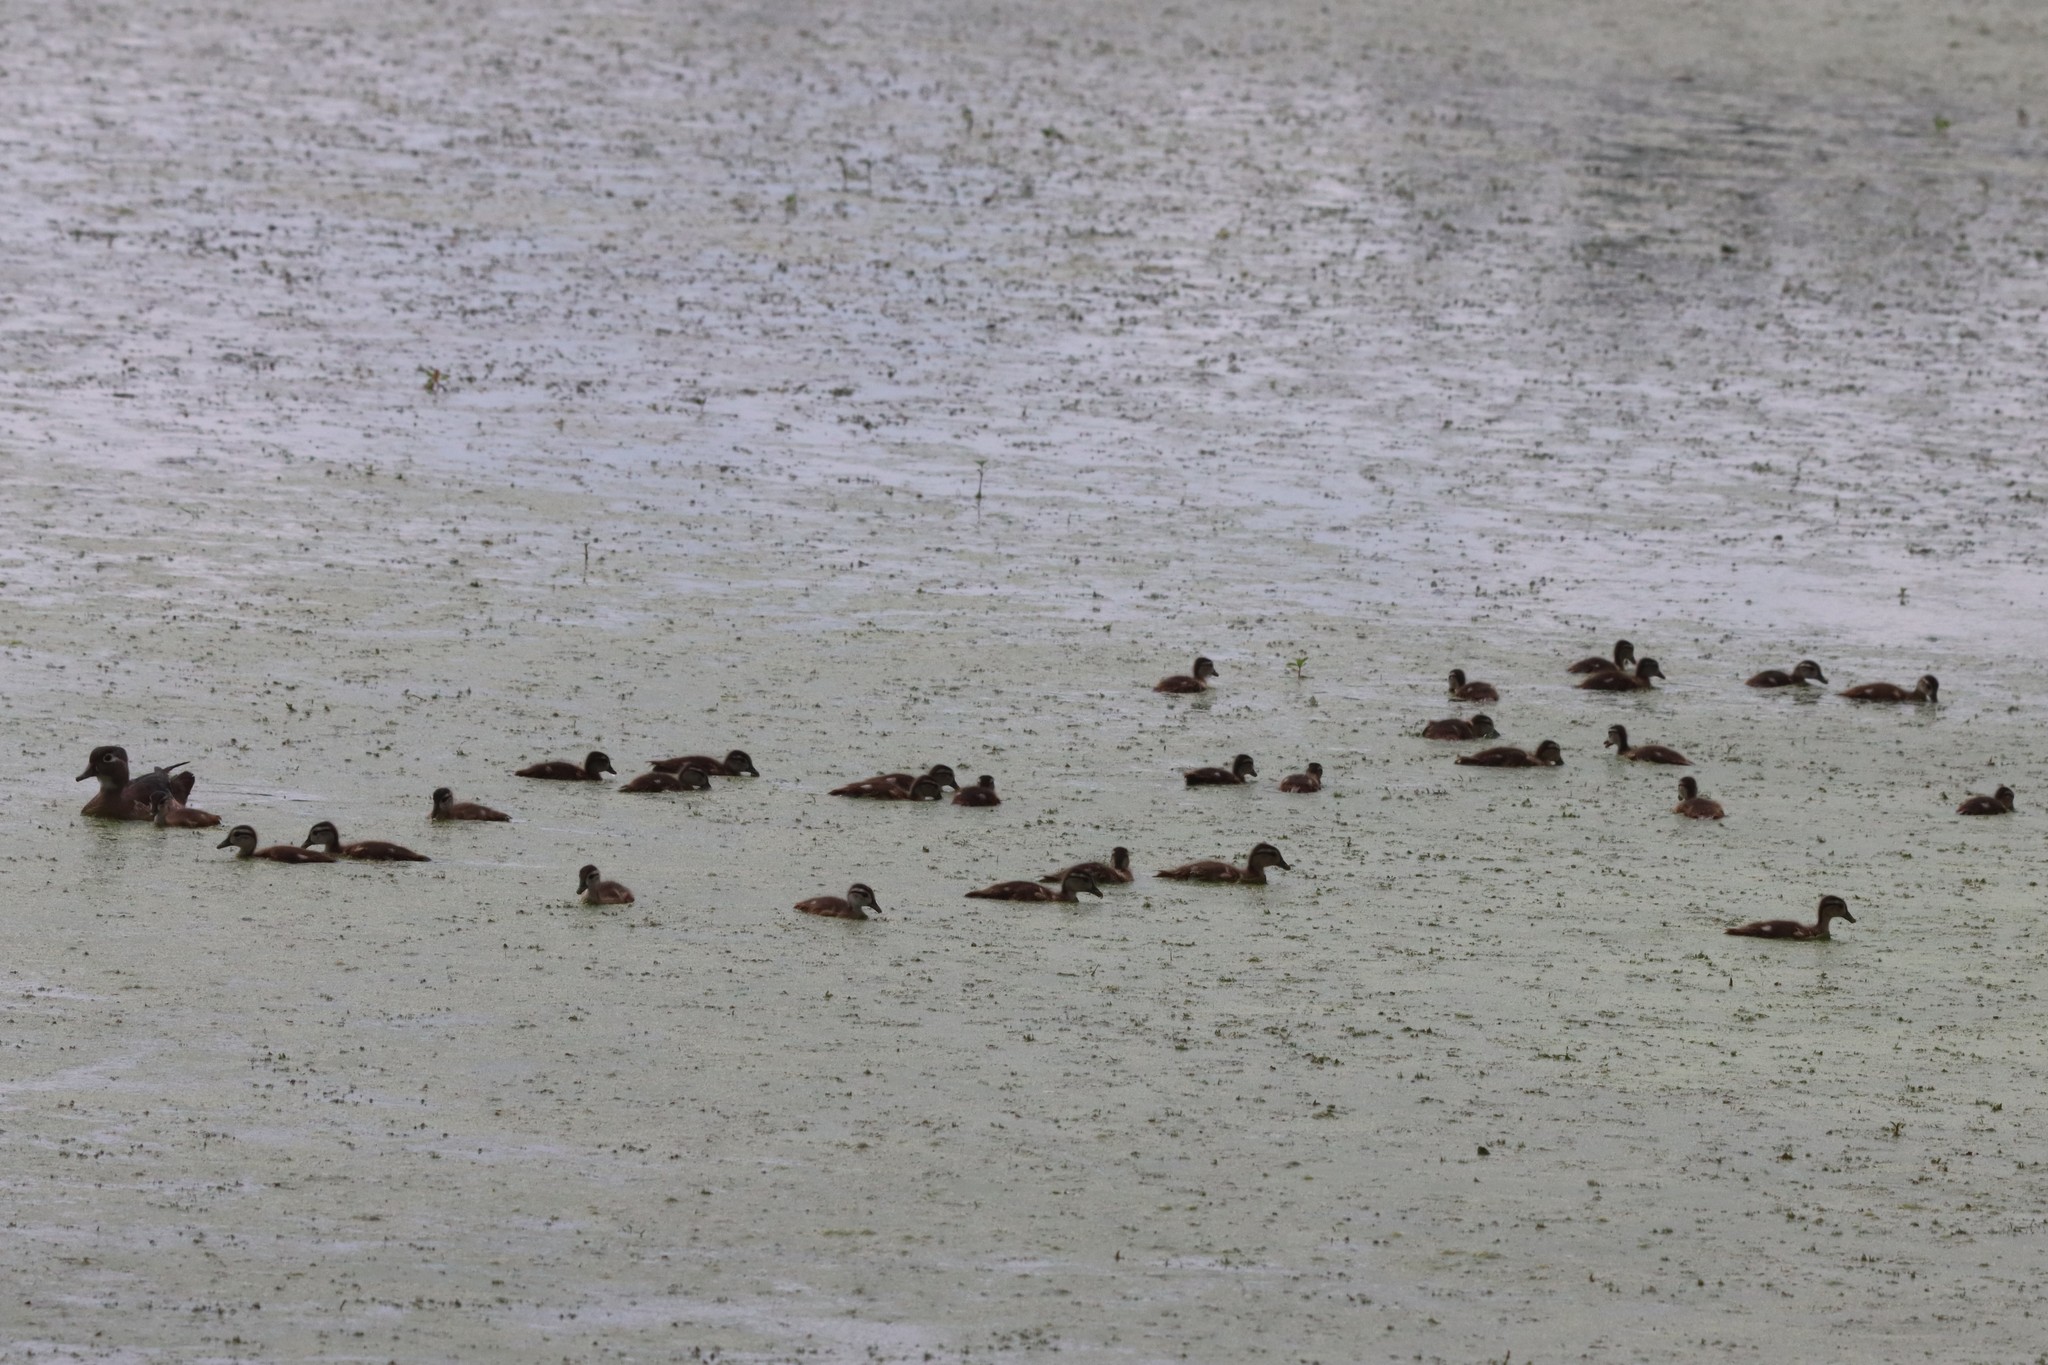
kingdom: Animalia
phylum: Chordata
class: Aves
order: Anseriformes
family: Anatidae
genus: Aix
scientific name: Aix sponsa
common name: Wood duck
